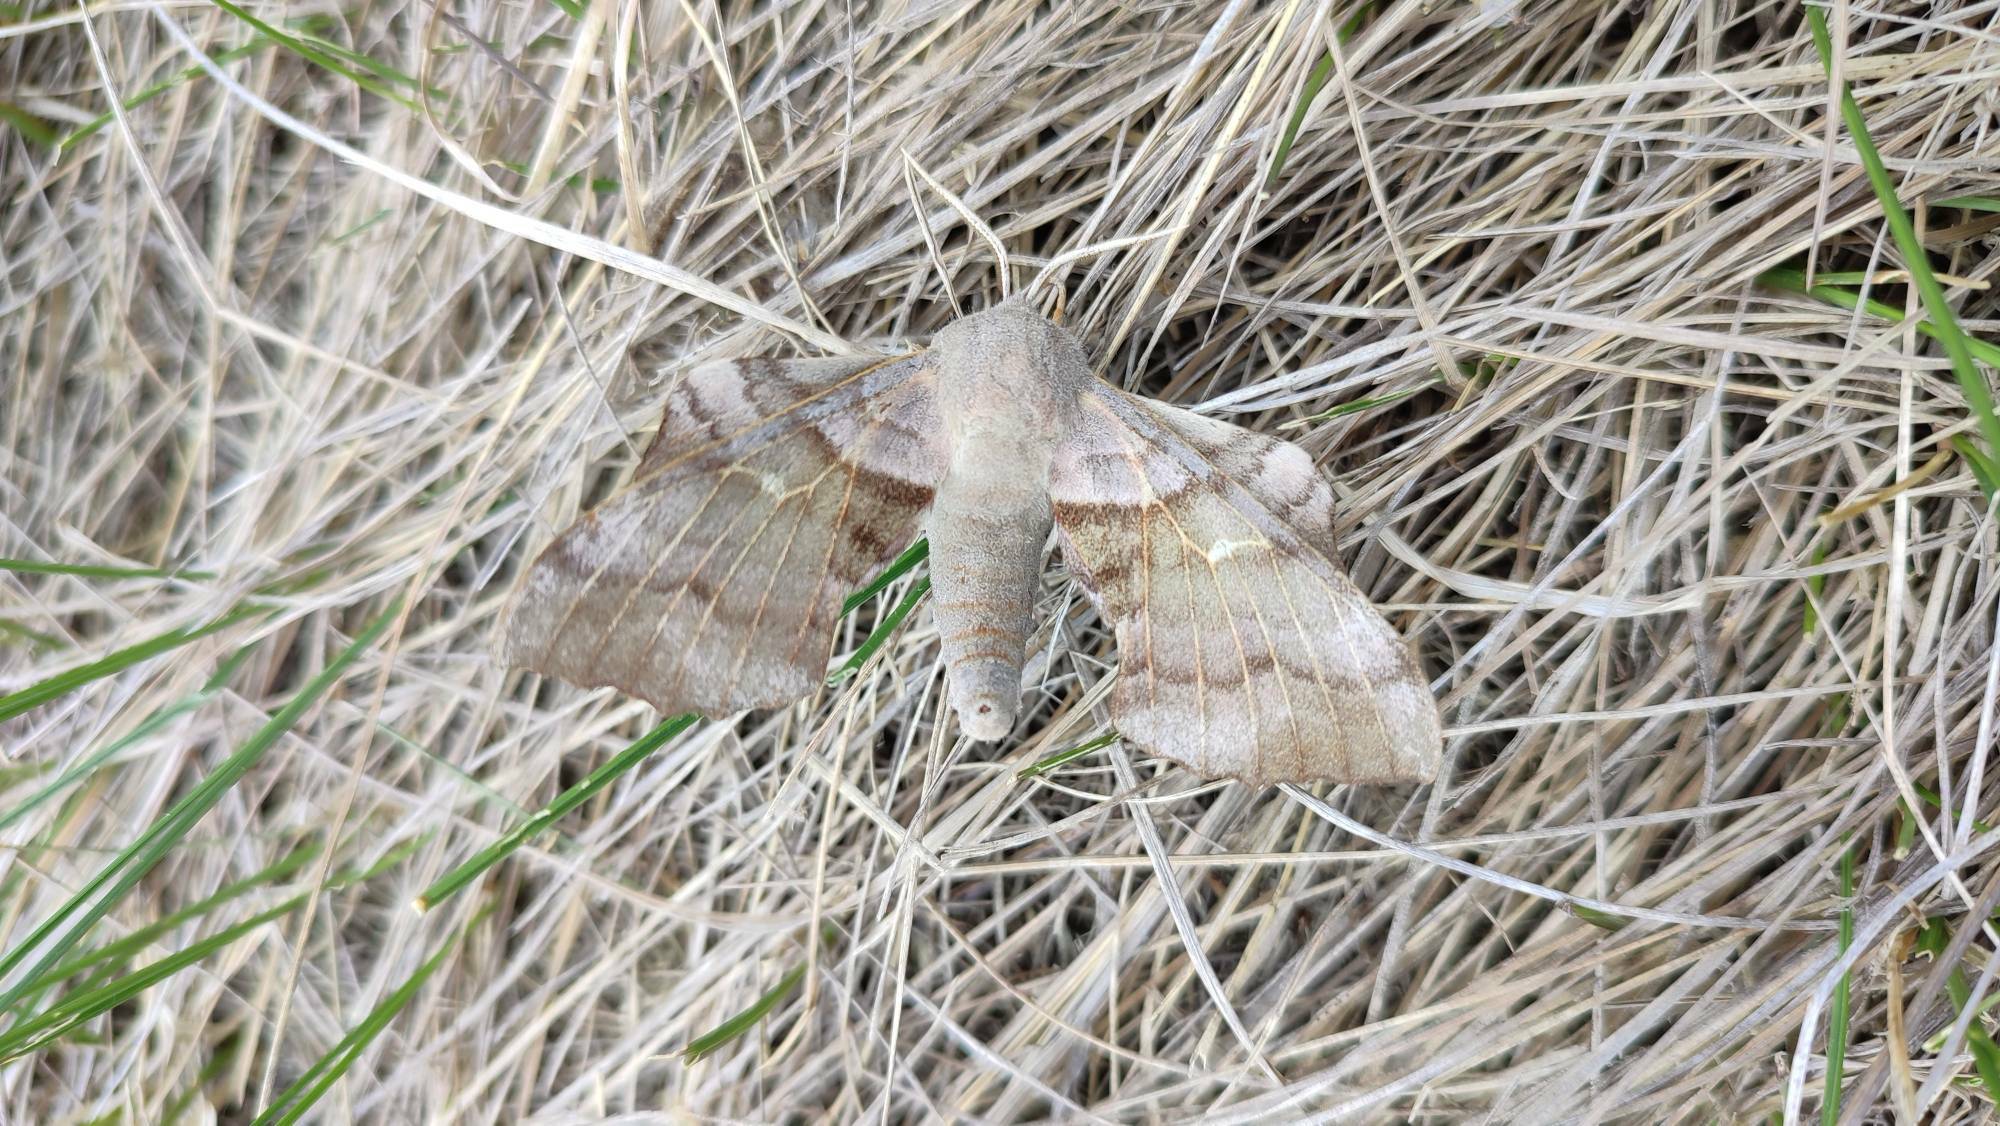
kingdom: Animalia
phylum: Arthropoda
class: Insecta
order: Lepidoptera
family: Sphingidae
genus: Laothoe
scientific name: Laothoe populi
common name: Poplar hawk-moth
